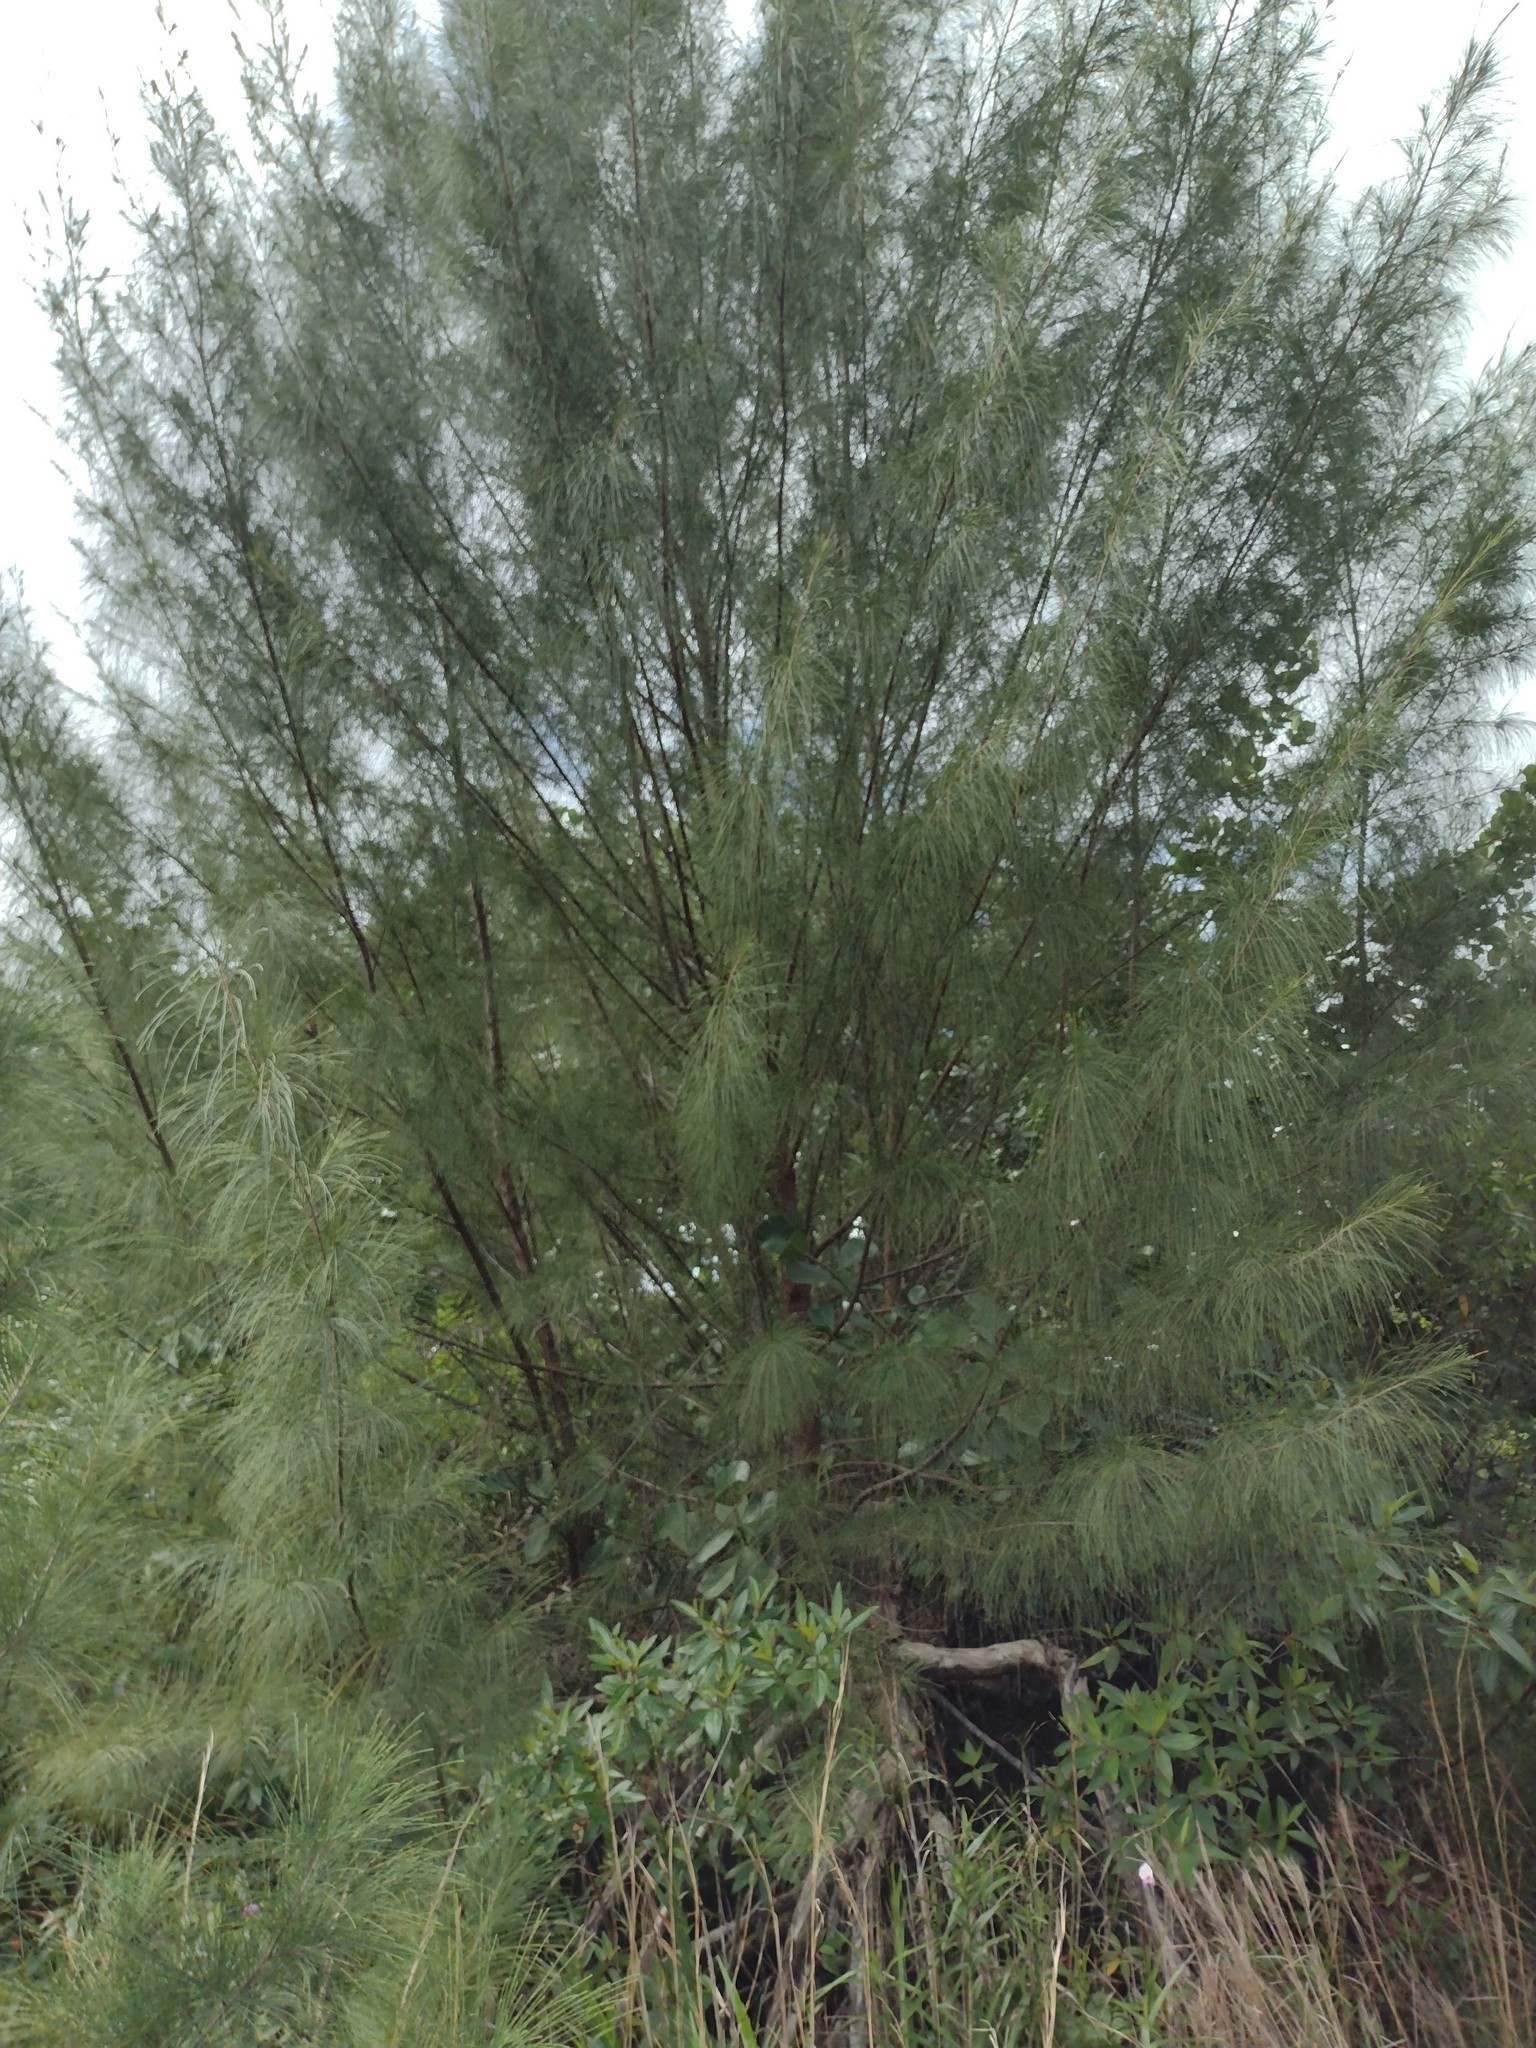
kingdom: Plantae
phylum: Tracheophyta
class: Magnoliopsida
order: Fagales
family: Casuarinaceae
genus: Casuarina
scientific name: Casuarina equisetifolia
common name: Beach sheoak
